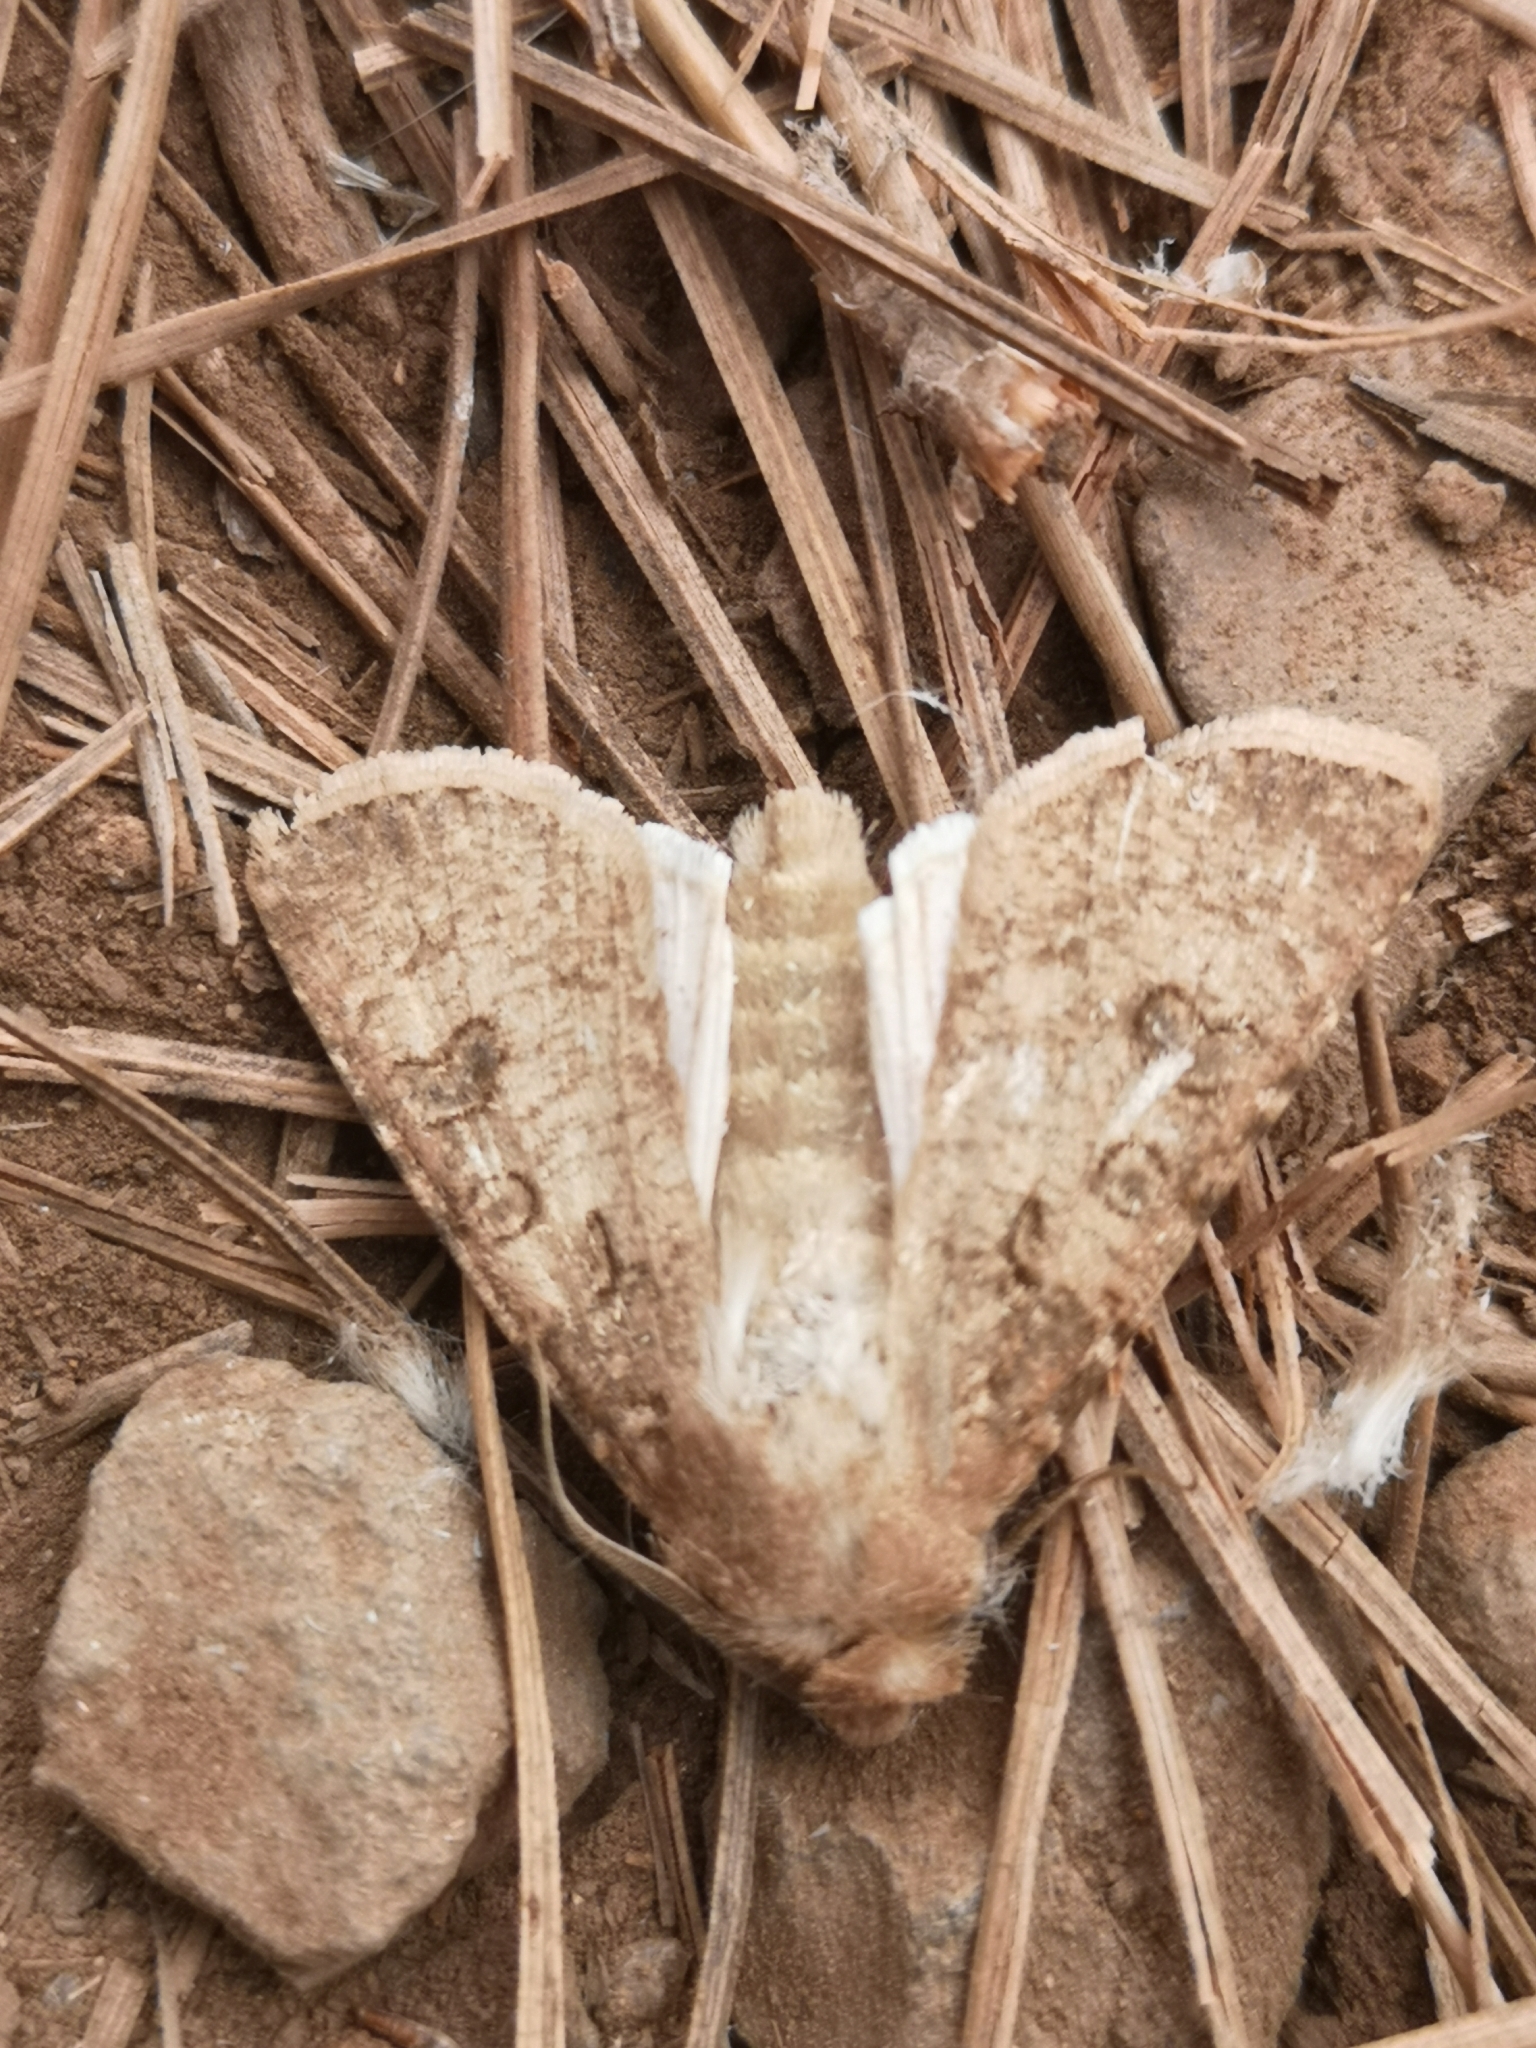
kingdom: Animalia
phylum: Arthropoda
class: Insecta
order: Lepidoptera
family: Noctuidae
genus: Agrotis
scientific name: Agrotis segetum
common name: Turnip moth
